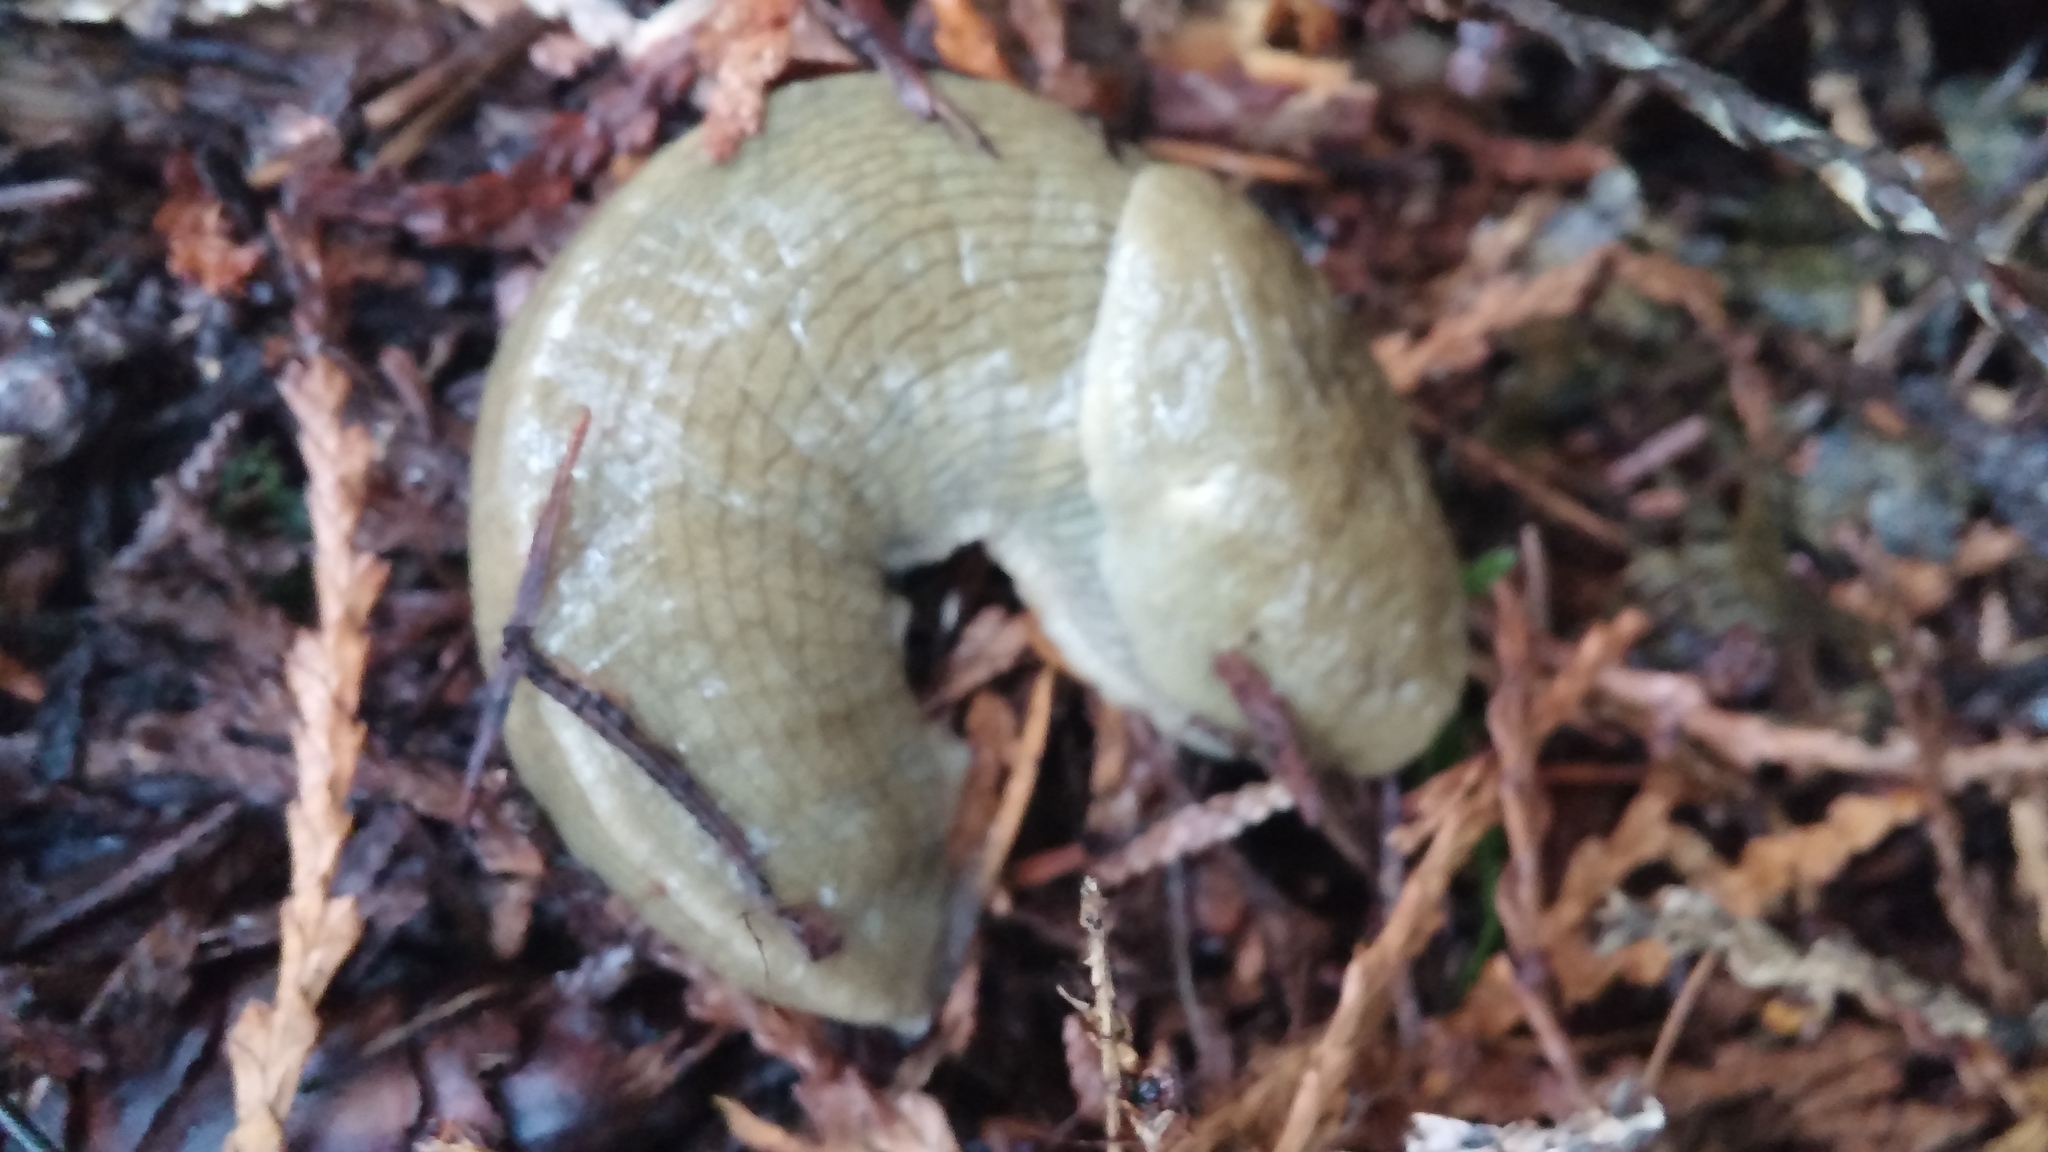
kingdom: Animalia
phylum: Mollusca
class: Gastropoda
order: Stylommatophora
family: Ariolimacidae
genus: Ariolimax
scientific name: Ariolimax columbianus
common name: Pacific banana slug
